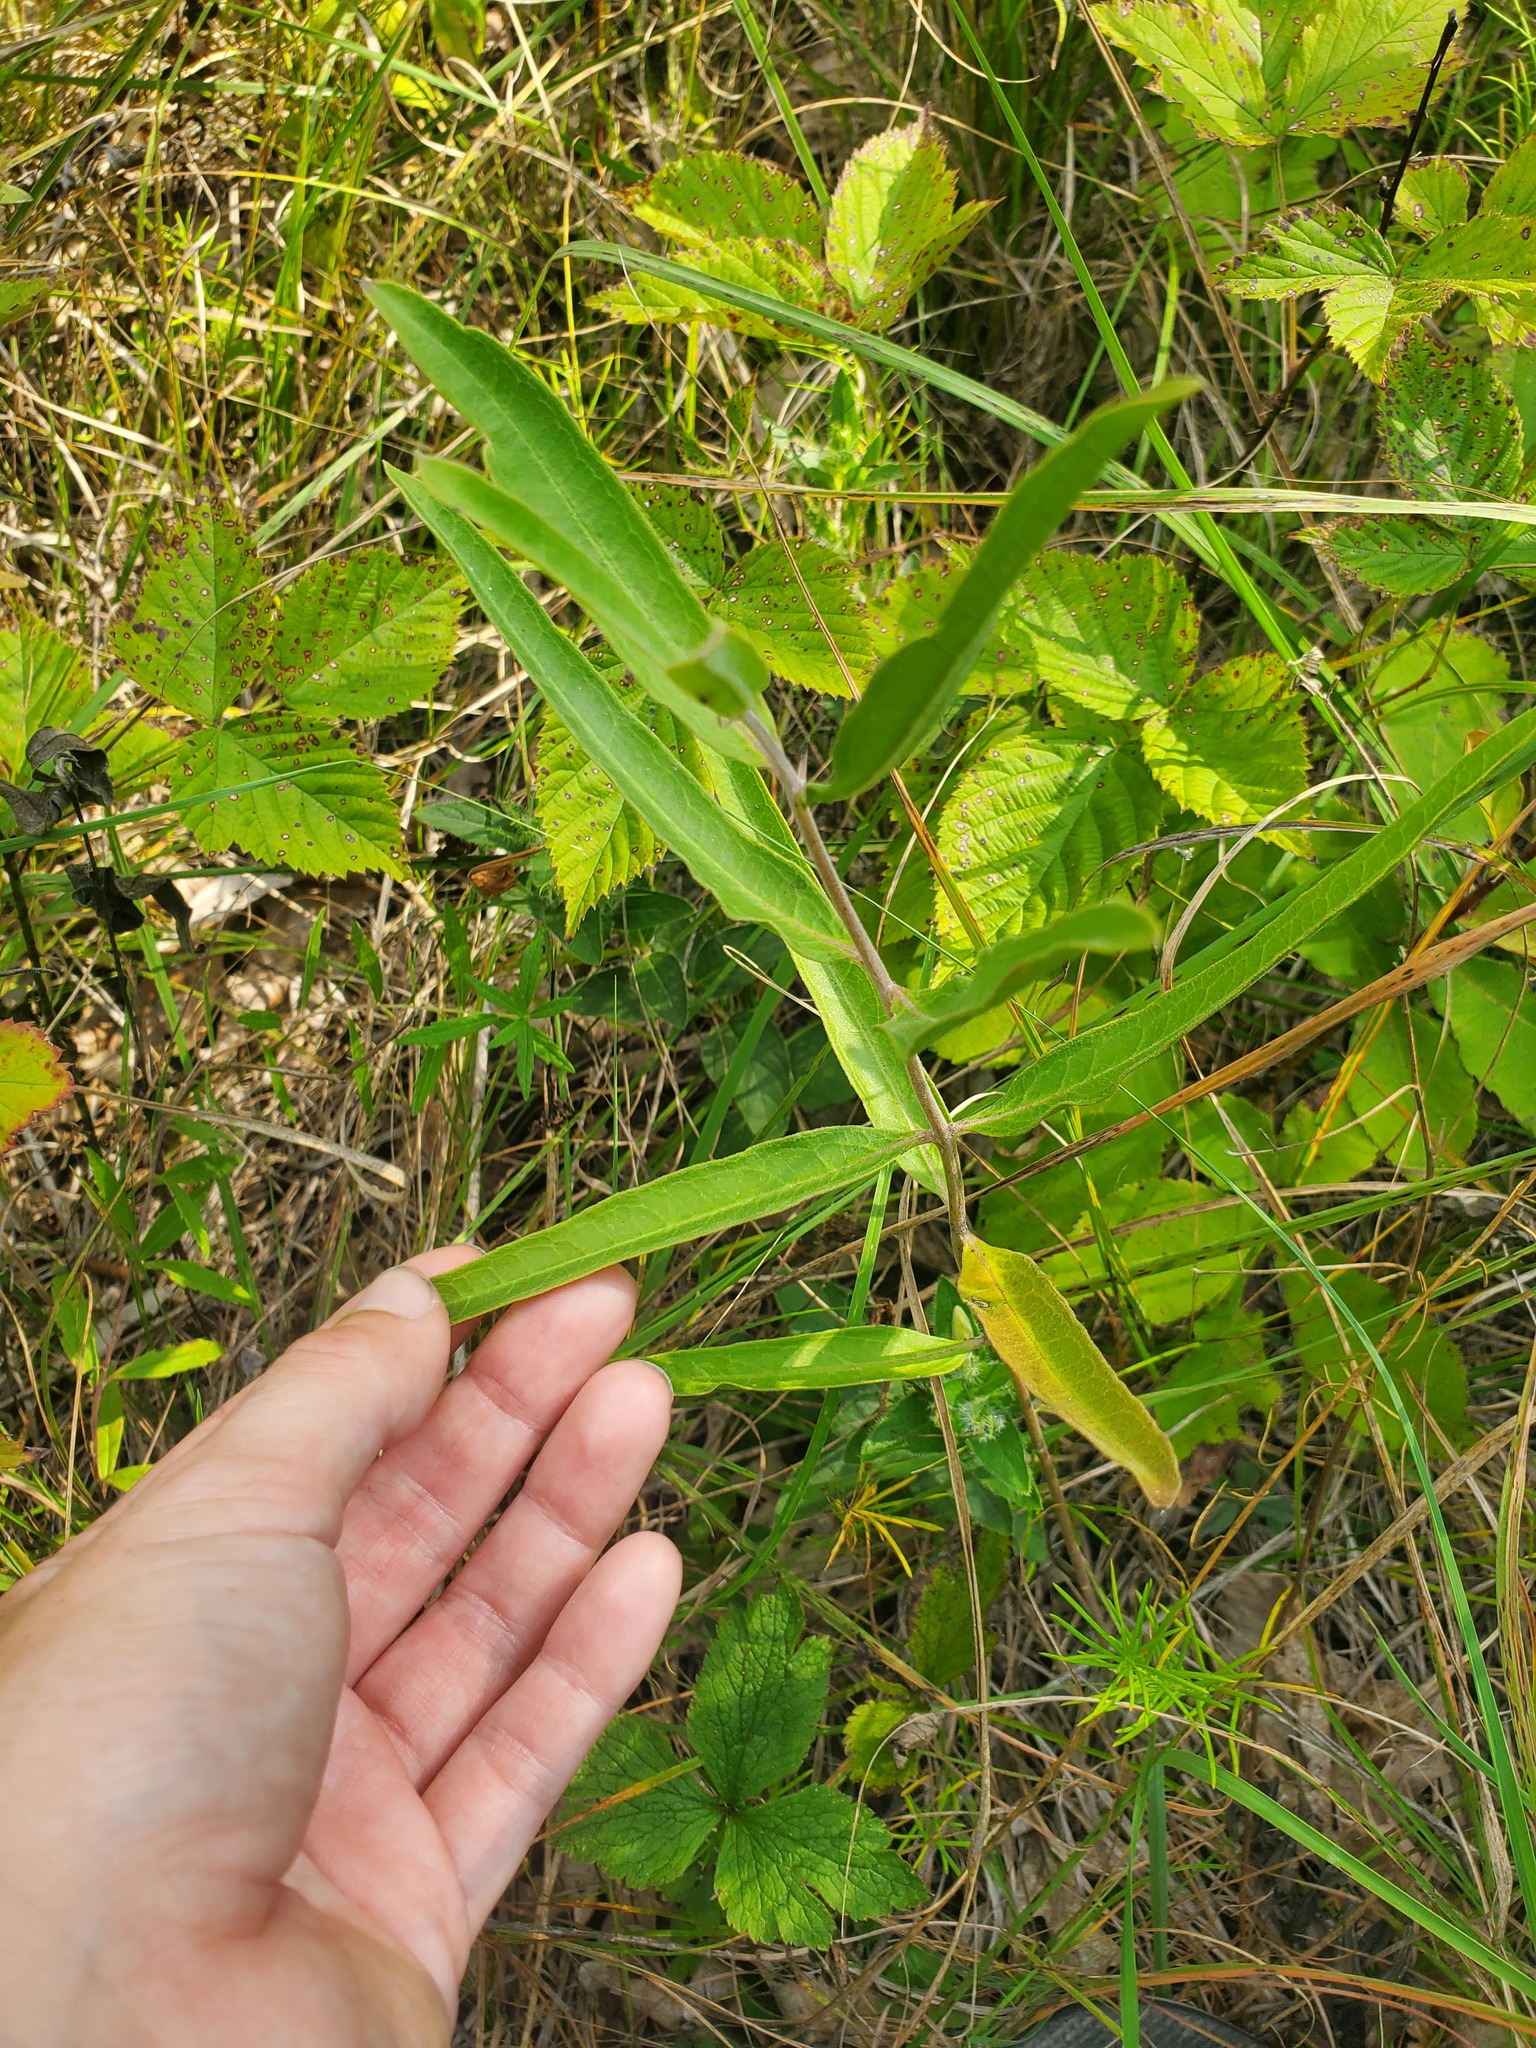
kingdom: Plantae
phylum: Tracheophyta
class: Magnoliopsida
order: Gentianales
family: Apocynaceae
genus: Asclepias
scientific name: Asclepias viridiflora
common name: Green comet milkweed
